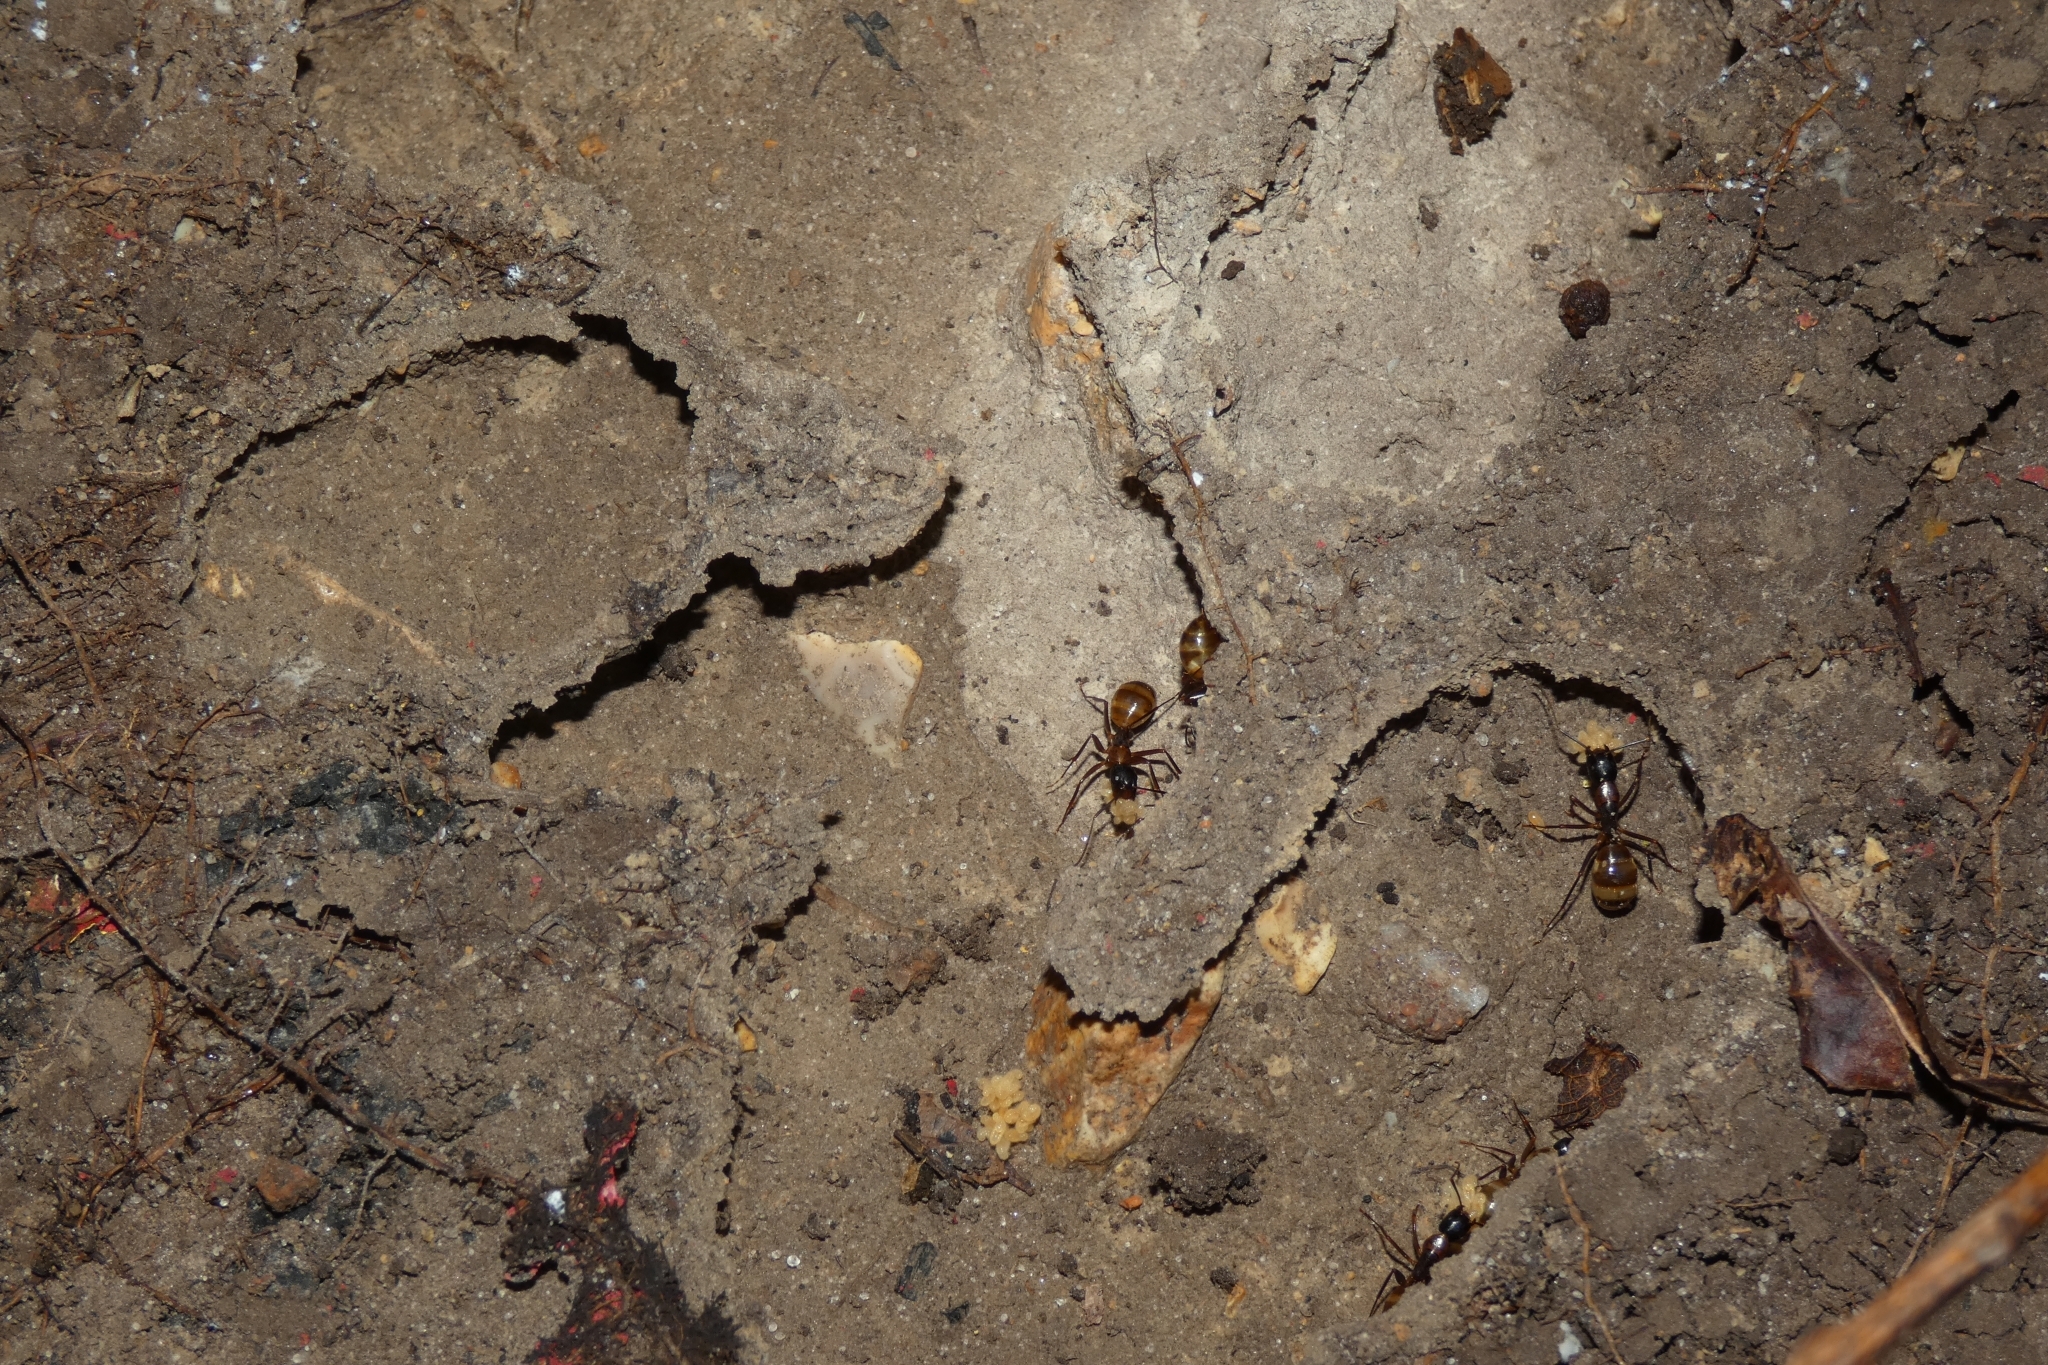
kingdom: Animalia
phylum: Arthropoda
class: Insecta
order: Hymenoptera
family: Formicidae
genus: Camponotus
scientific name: Camponotus americanus
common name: American carpenter ant
